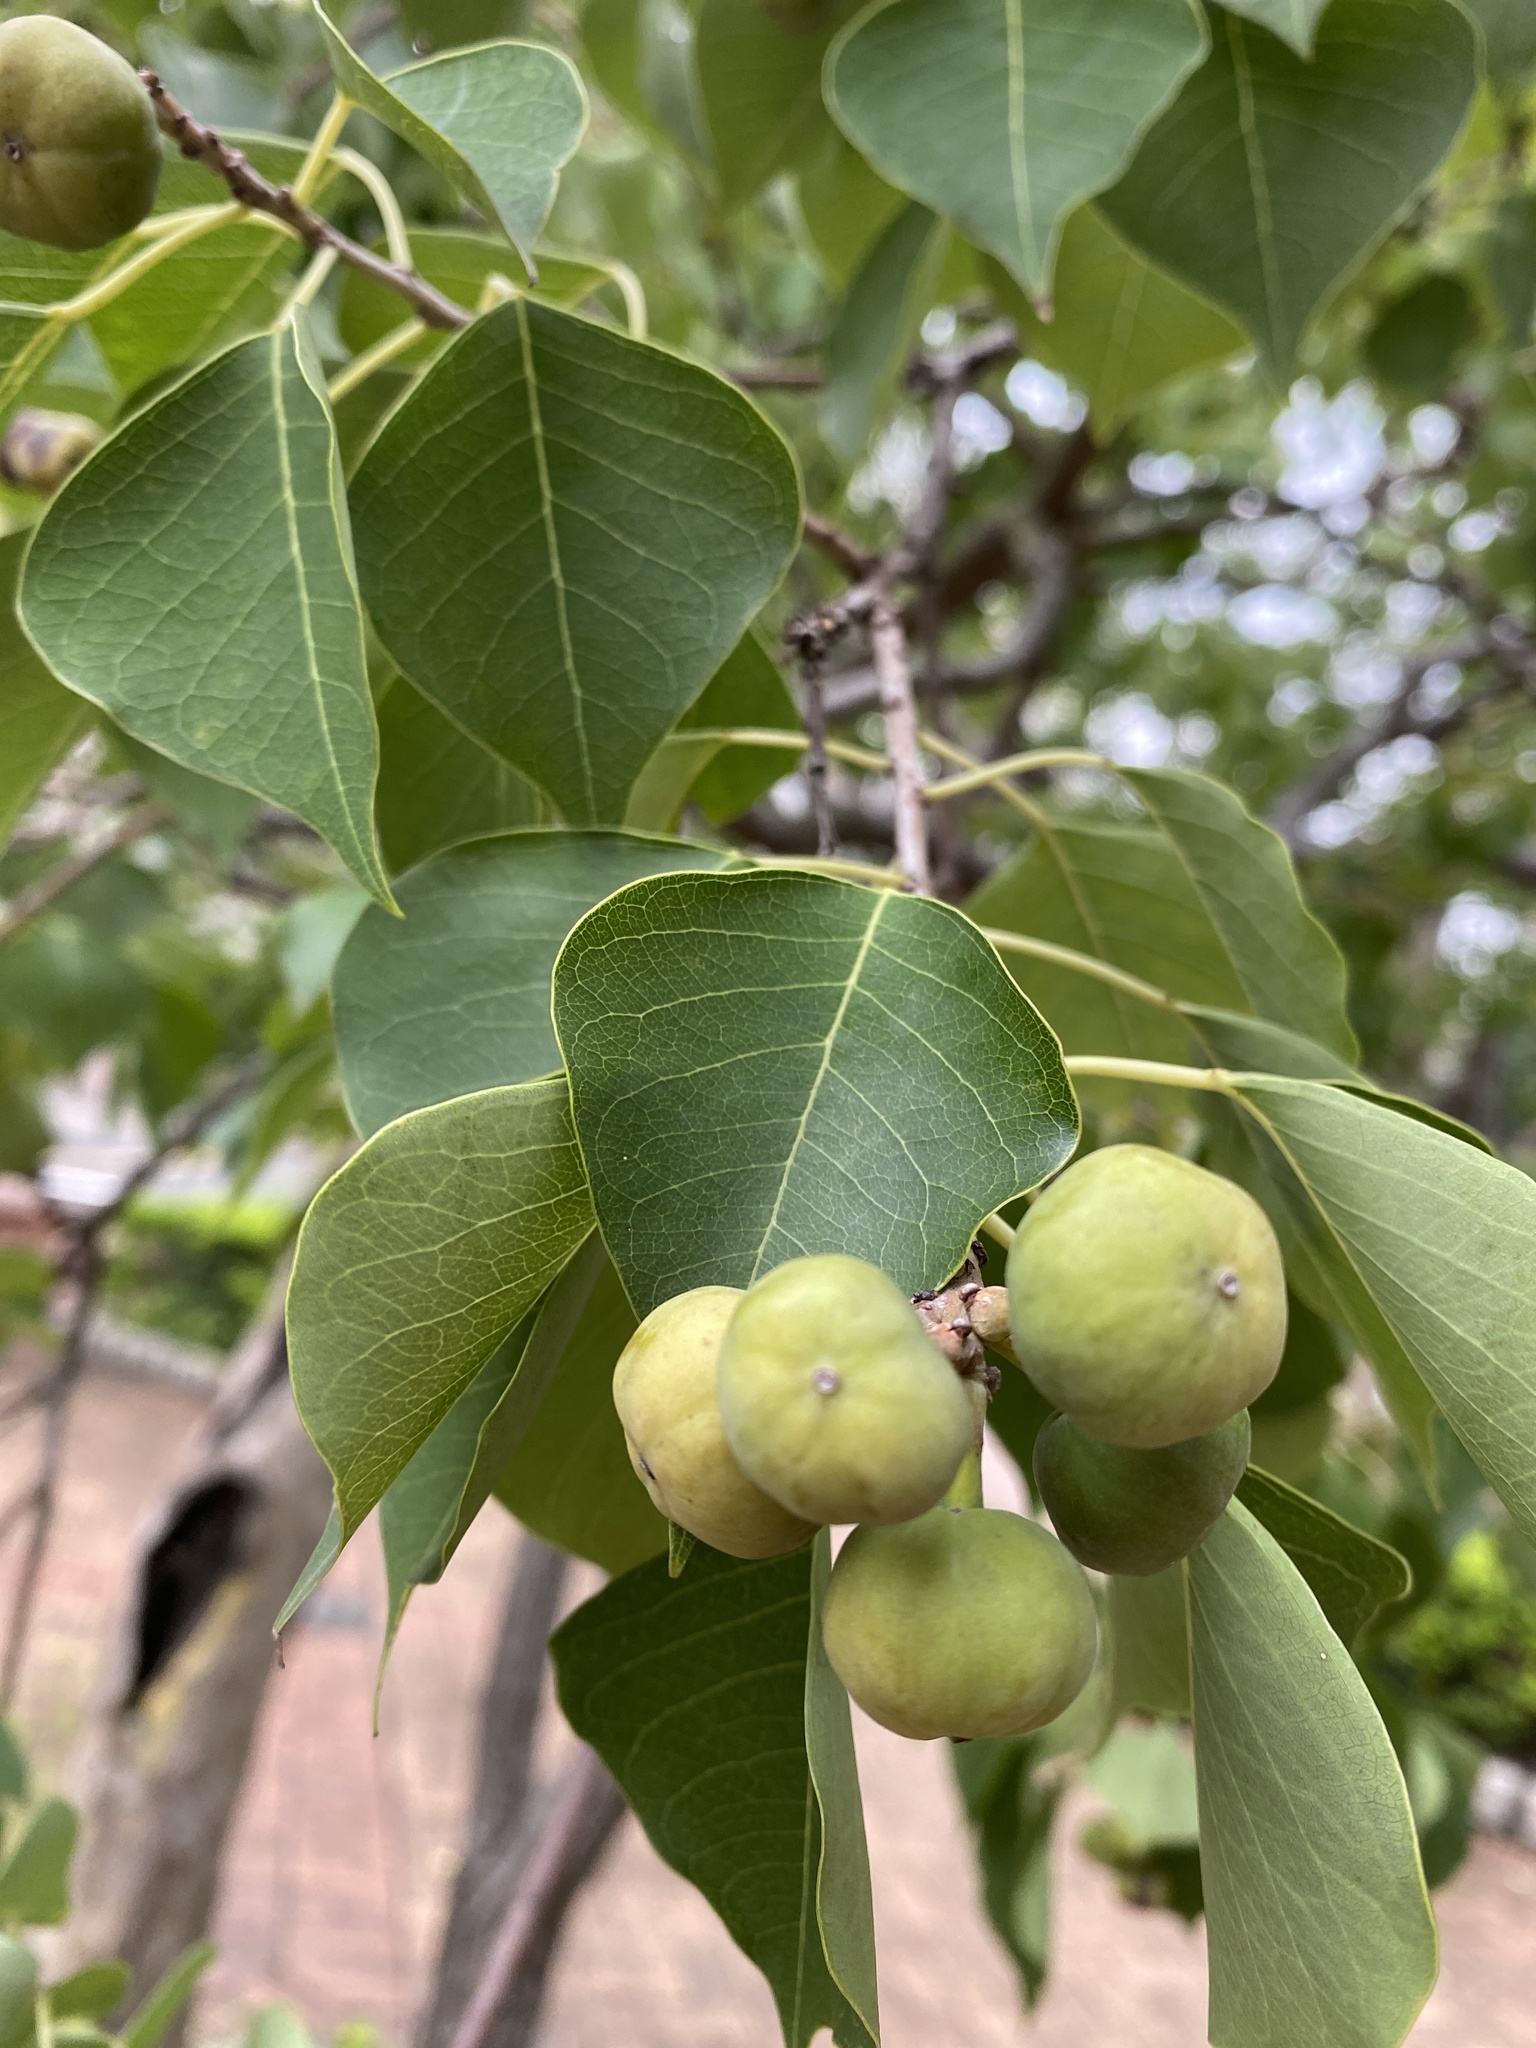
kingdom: Plantae
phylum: Tracheophyta
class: Magnoliopsida
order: Malpighiales
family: Euphorbiaceae
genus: Triadica
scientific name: Triadica sebifera
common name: Chinese tallow
